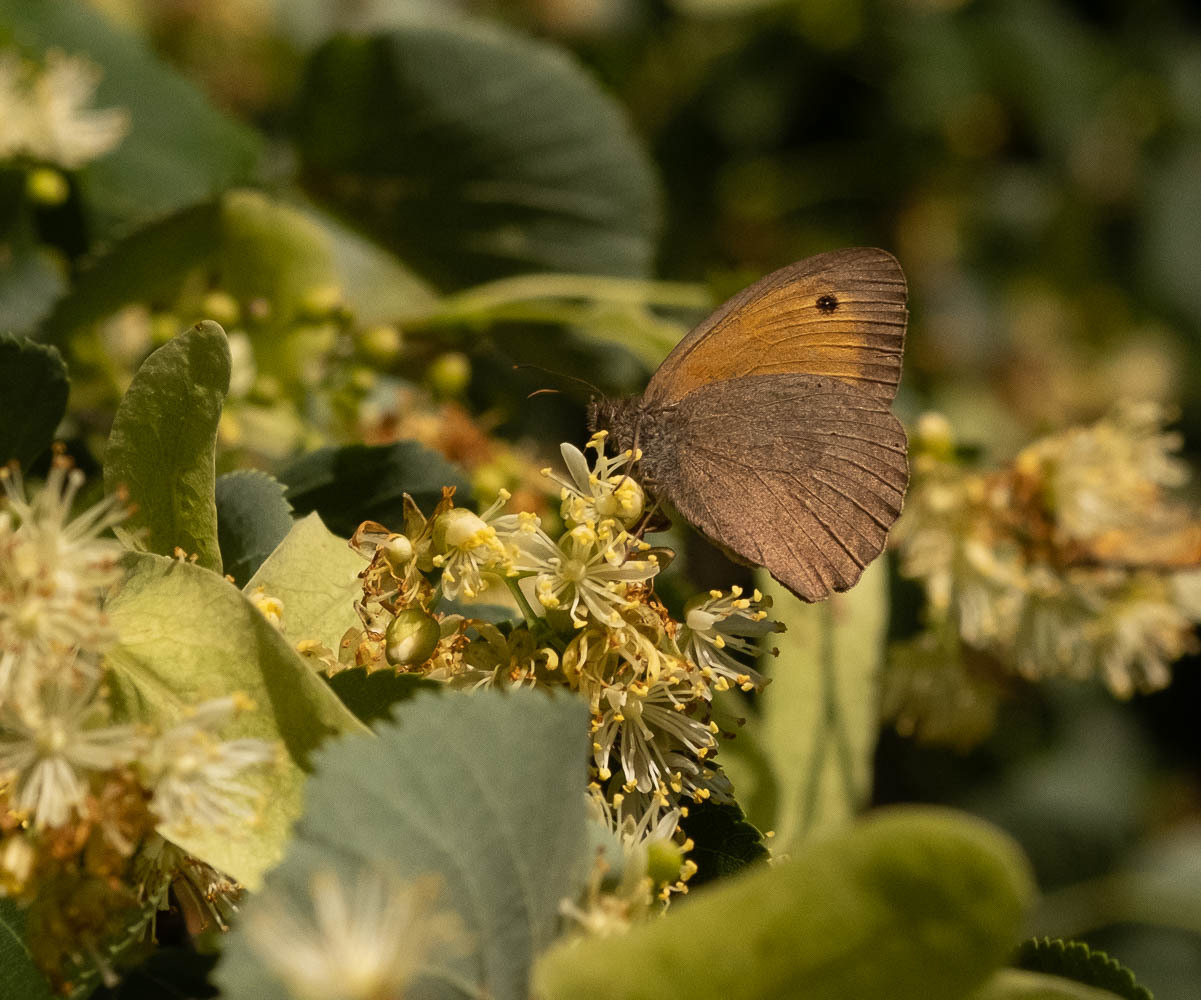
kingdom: Animalia
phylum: Arthropoda
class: Insecta
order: Lepidoptera
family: Nymphalidae
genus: Maniola
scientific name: Maniola jurtina
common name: Meadow brown
